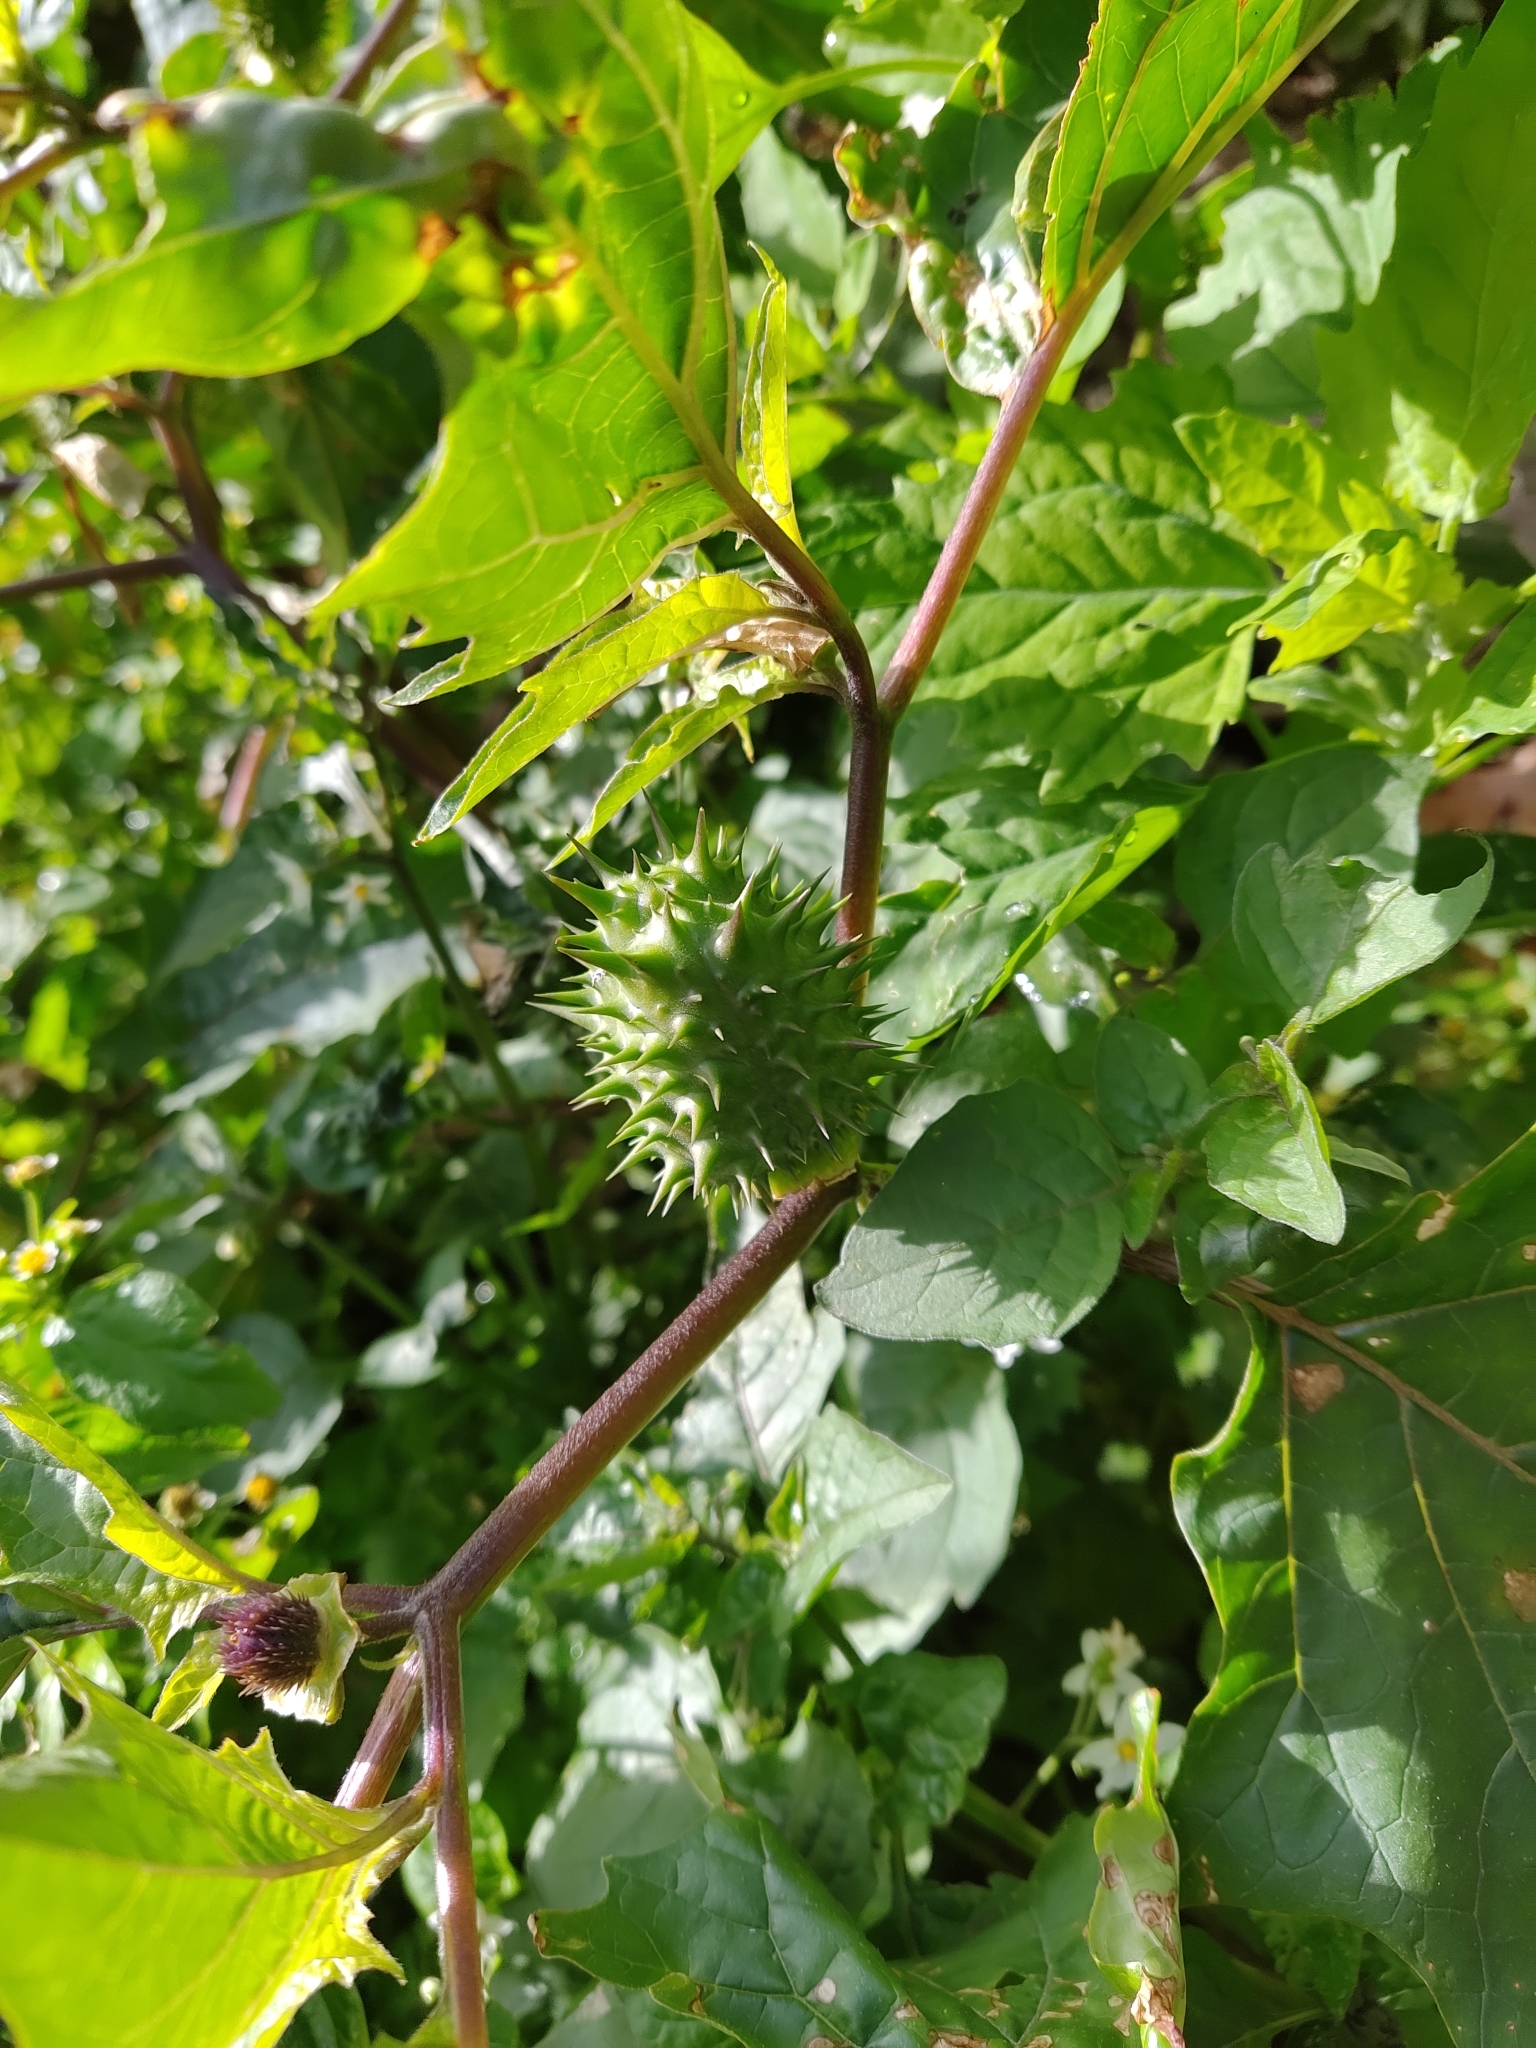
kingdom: Plantae
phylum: Tracheophyta
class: Magnoliopsida
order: Solanales
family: Solanaceae
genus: Datura
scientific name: Datura stramonium
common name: Thorn-apple
